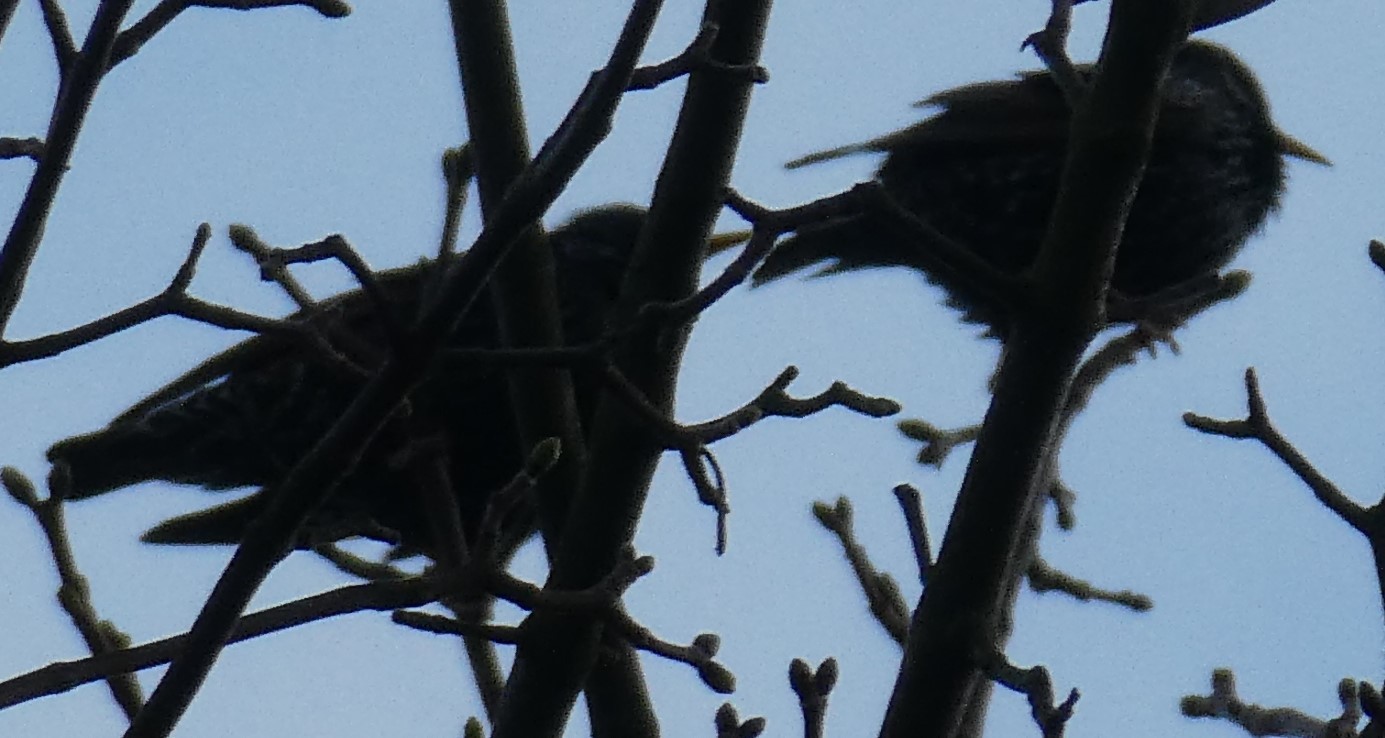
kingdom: Animalia
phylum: Chordata
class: Aves
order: Passeriformes
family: Sturnidae
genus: Sturnus
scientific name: Sturnus vulgaris
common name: Common starling
